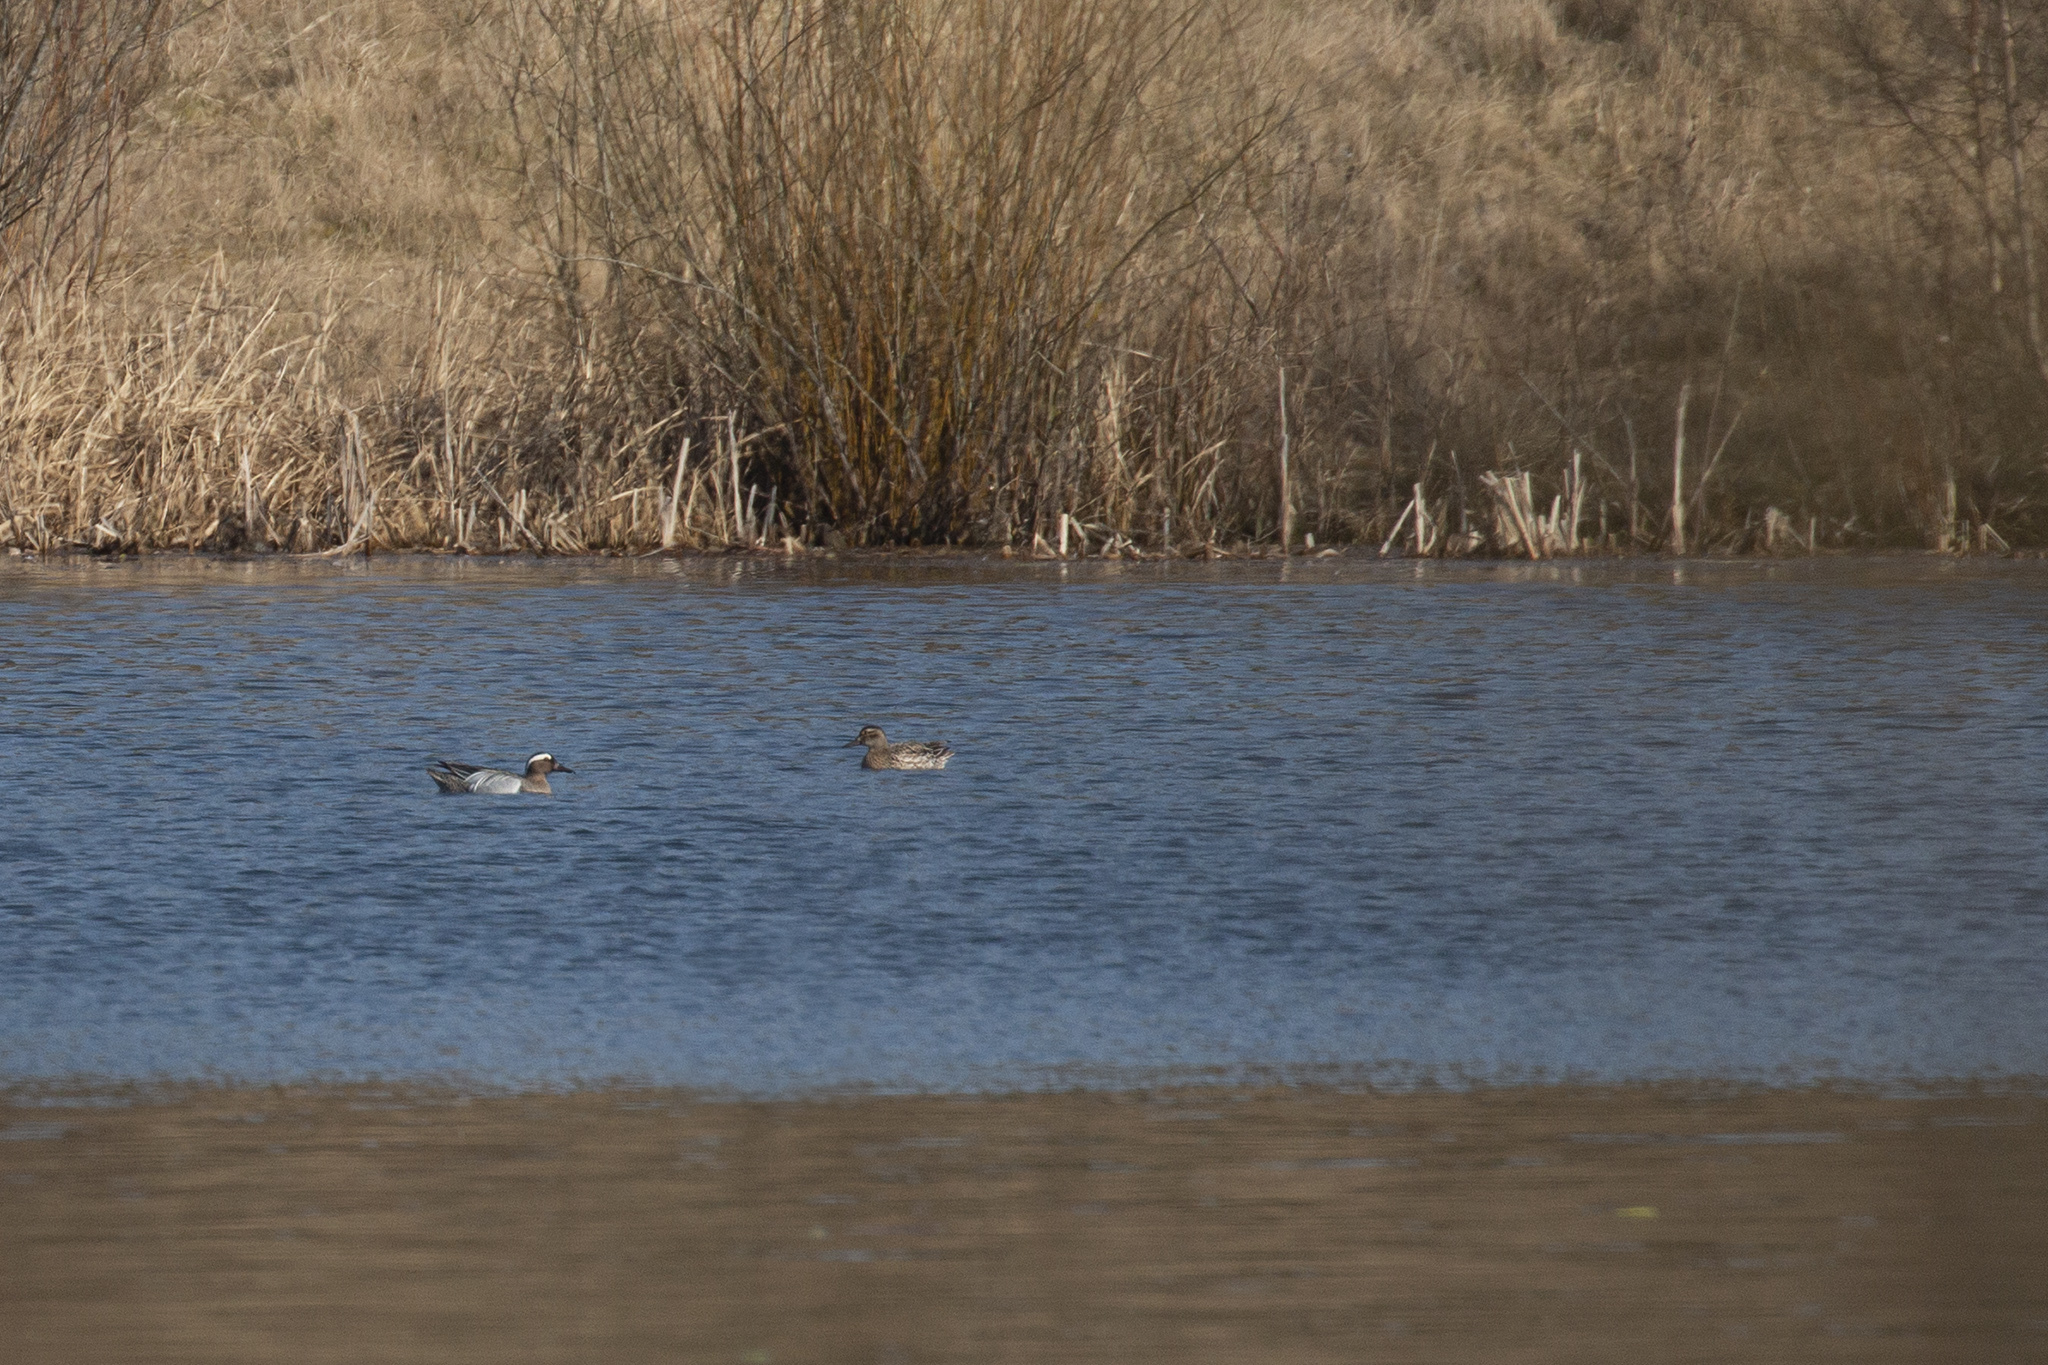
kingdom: Animalia
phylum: Chordata
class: Aves
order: Anseriformes
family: Anatidae
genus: Spatula
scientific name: Spatula querquedula
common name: Garganey
